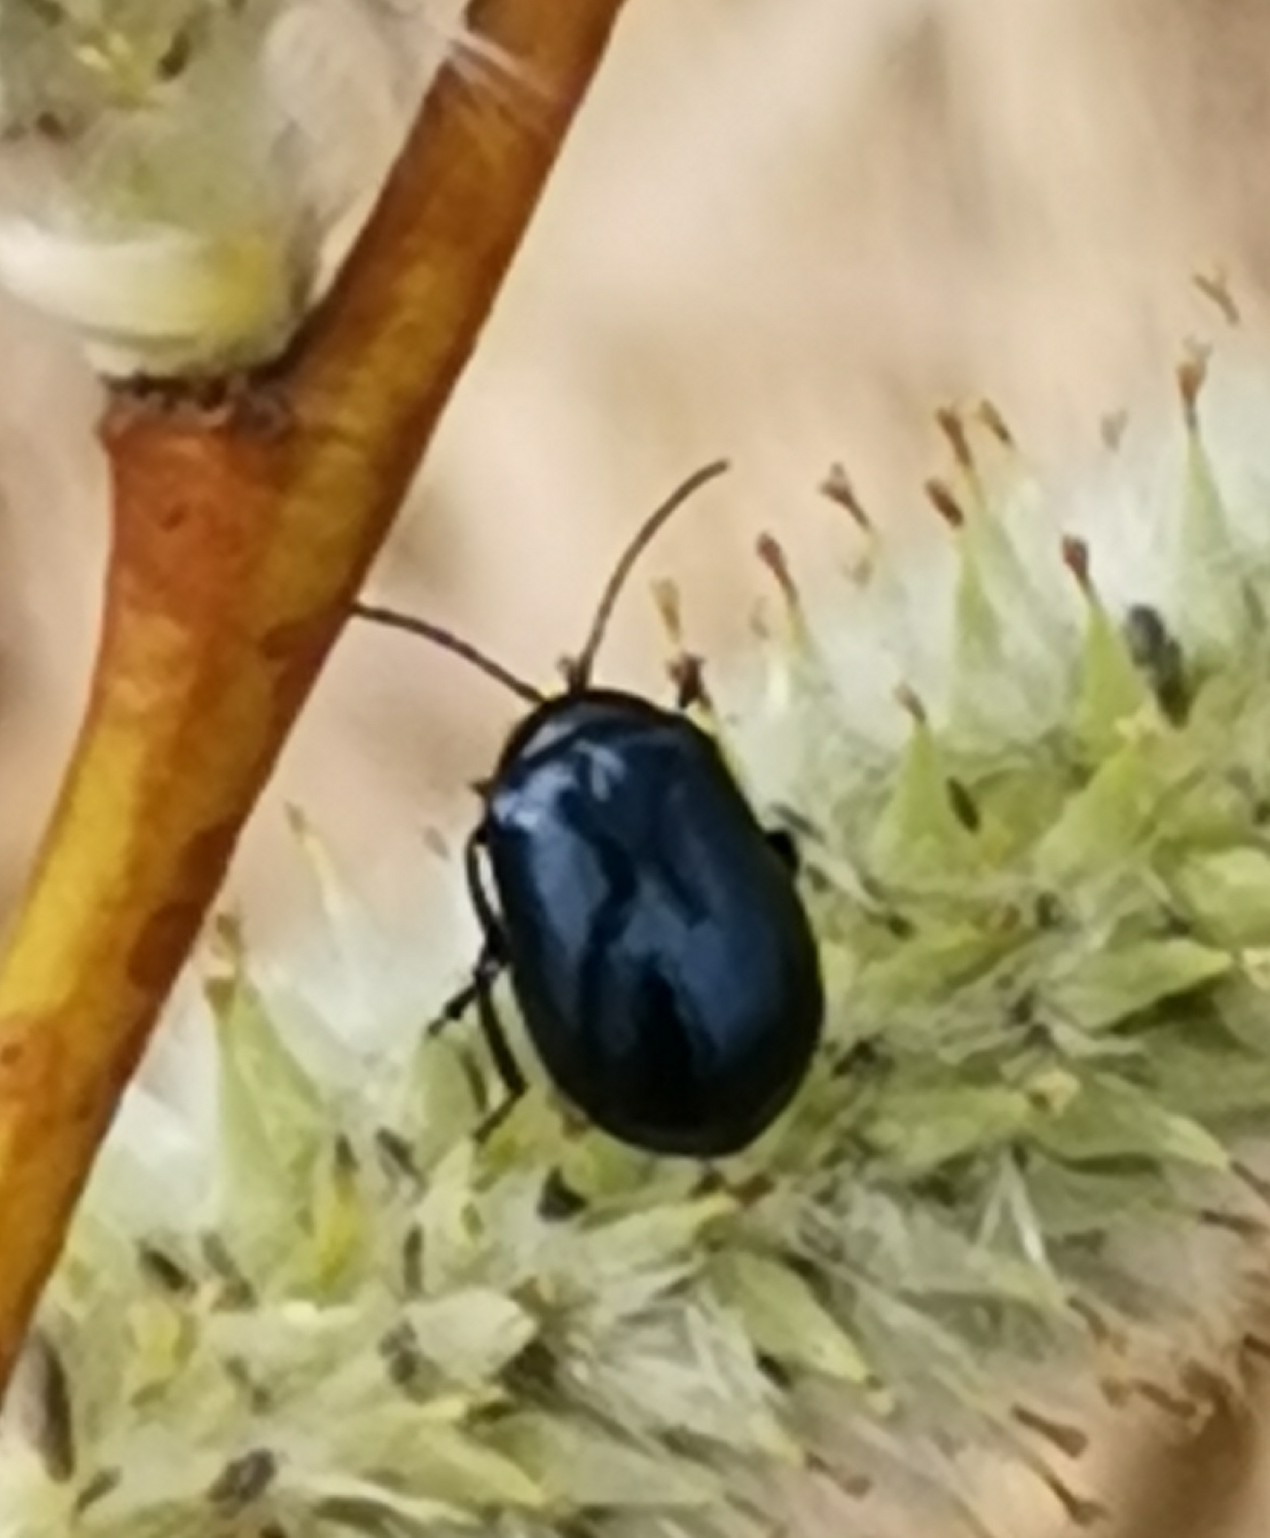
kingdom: Animalia
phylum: Arthropoda
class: Insecta
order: Coleoptera
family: Chrysomelidae
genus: Agelastica
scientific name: Agelastica alni
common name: Alder leaf beetle
